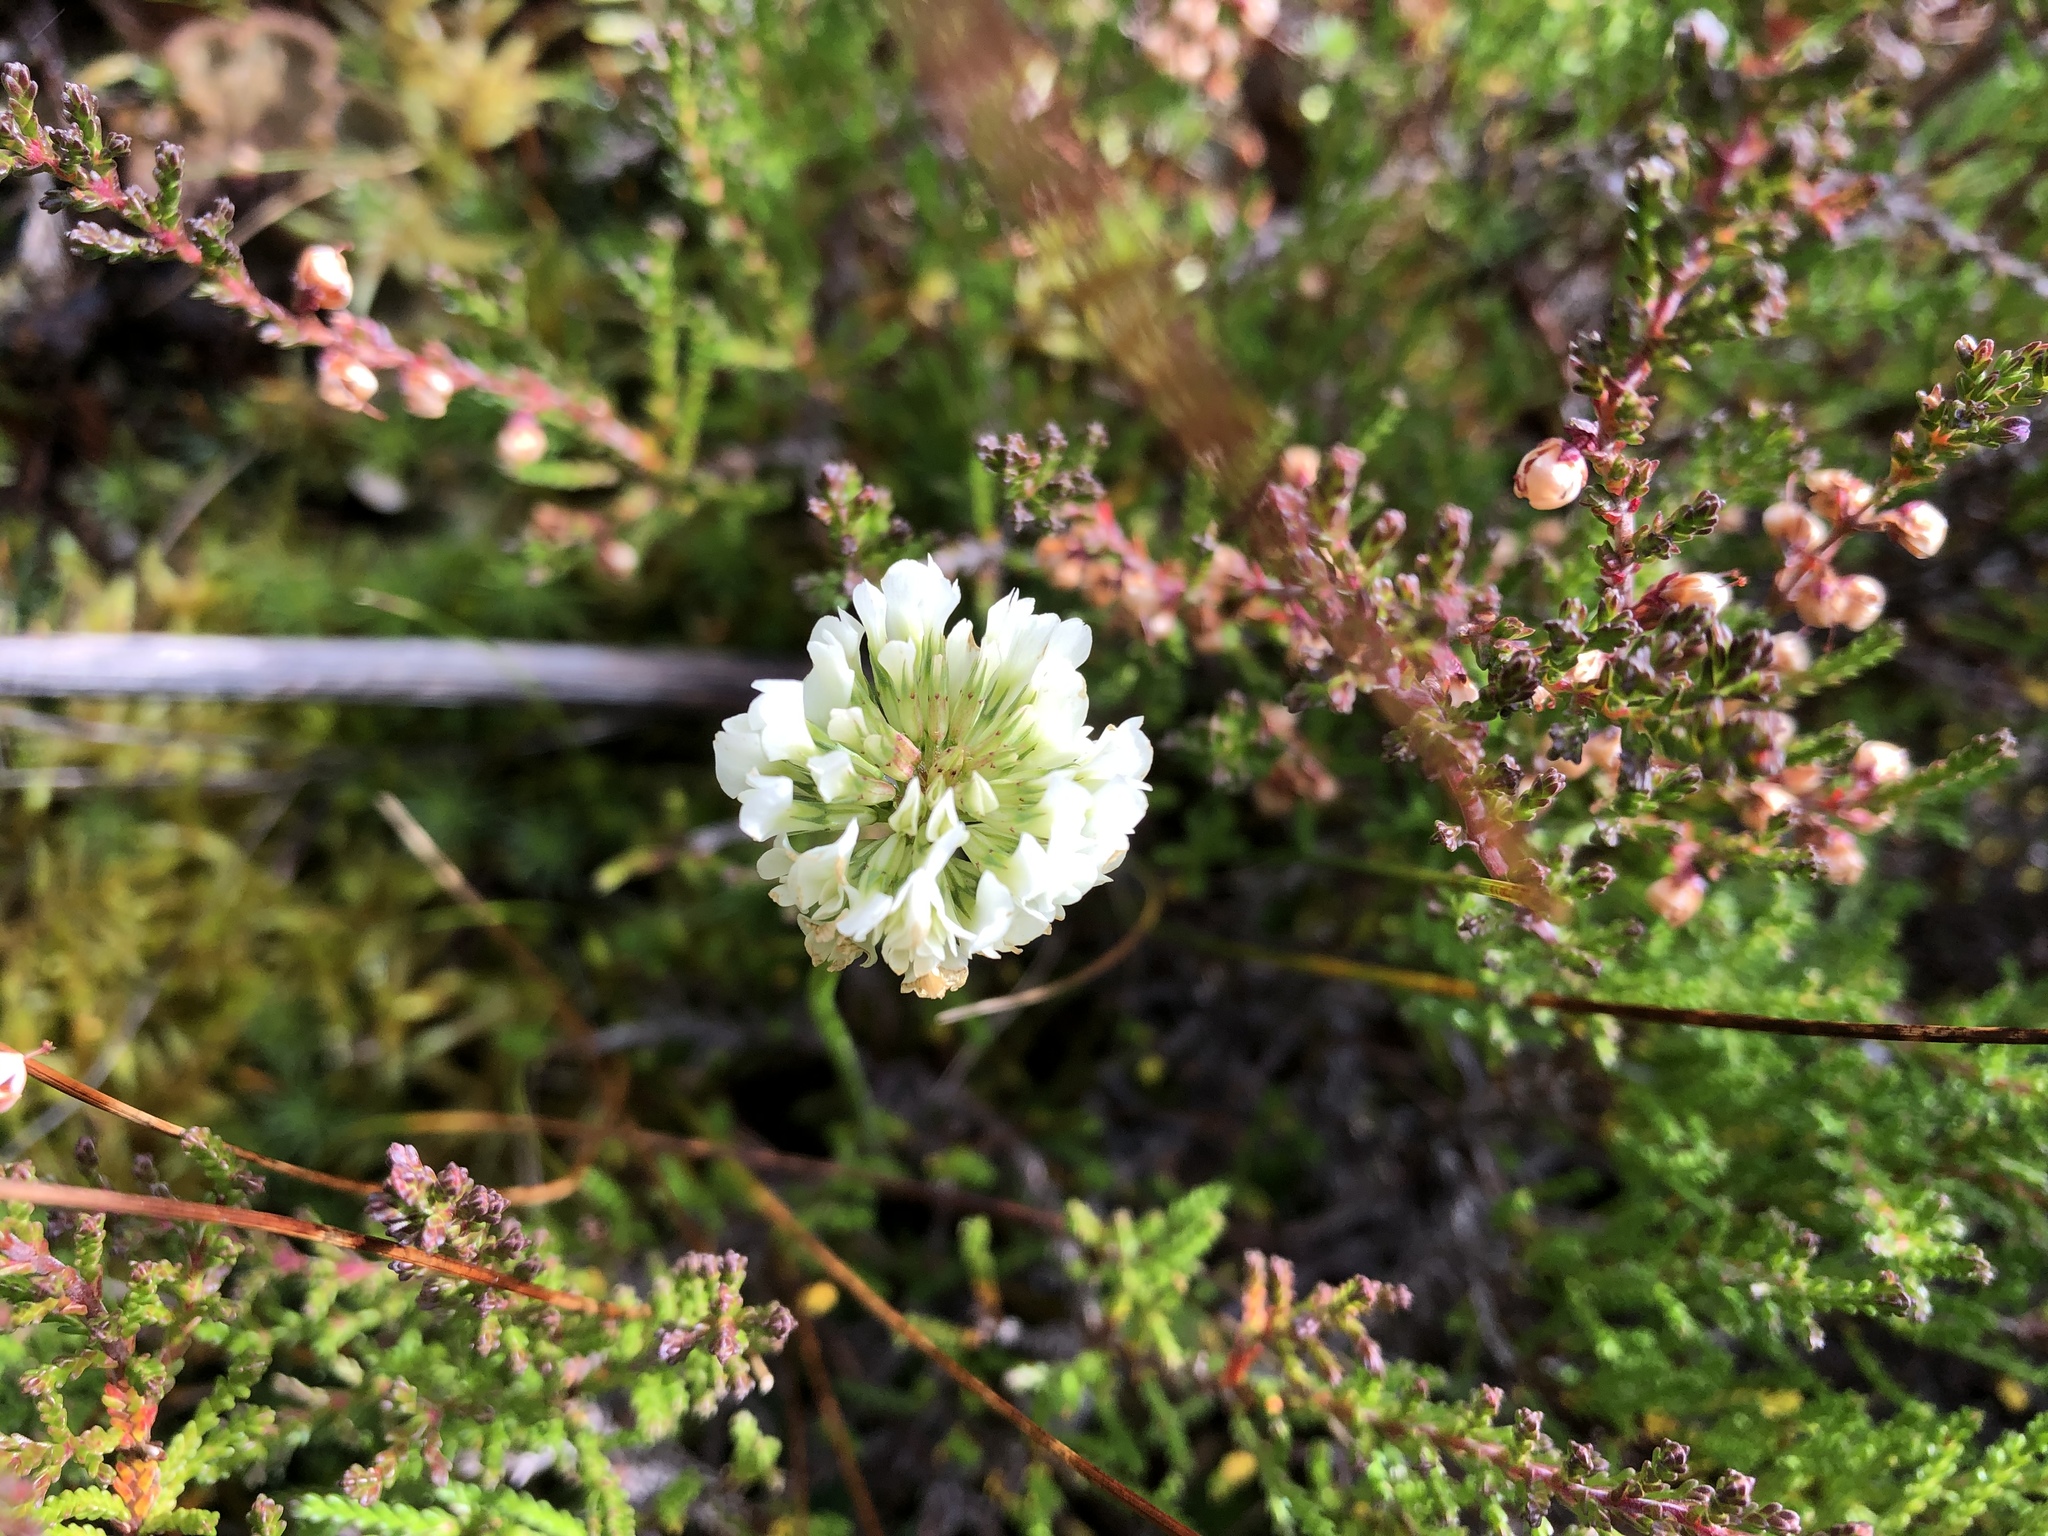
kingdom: Plantae
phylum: Tracheophyta
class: Magnoliopsida
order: Fabales
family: Fabaceae
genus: Trifolium
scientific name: Trifolium repens
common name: White clover
